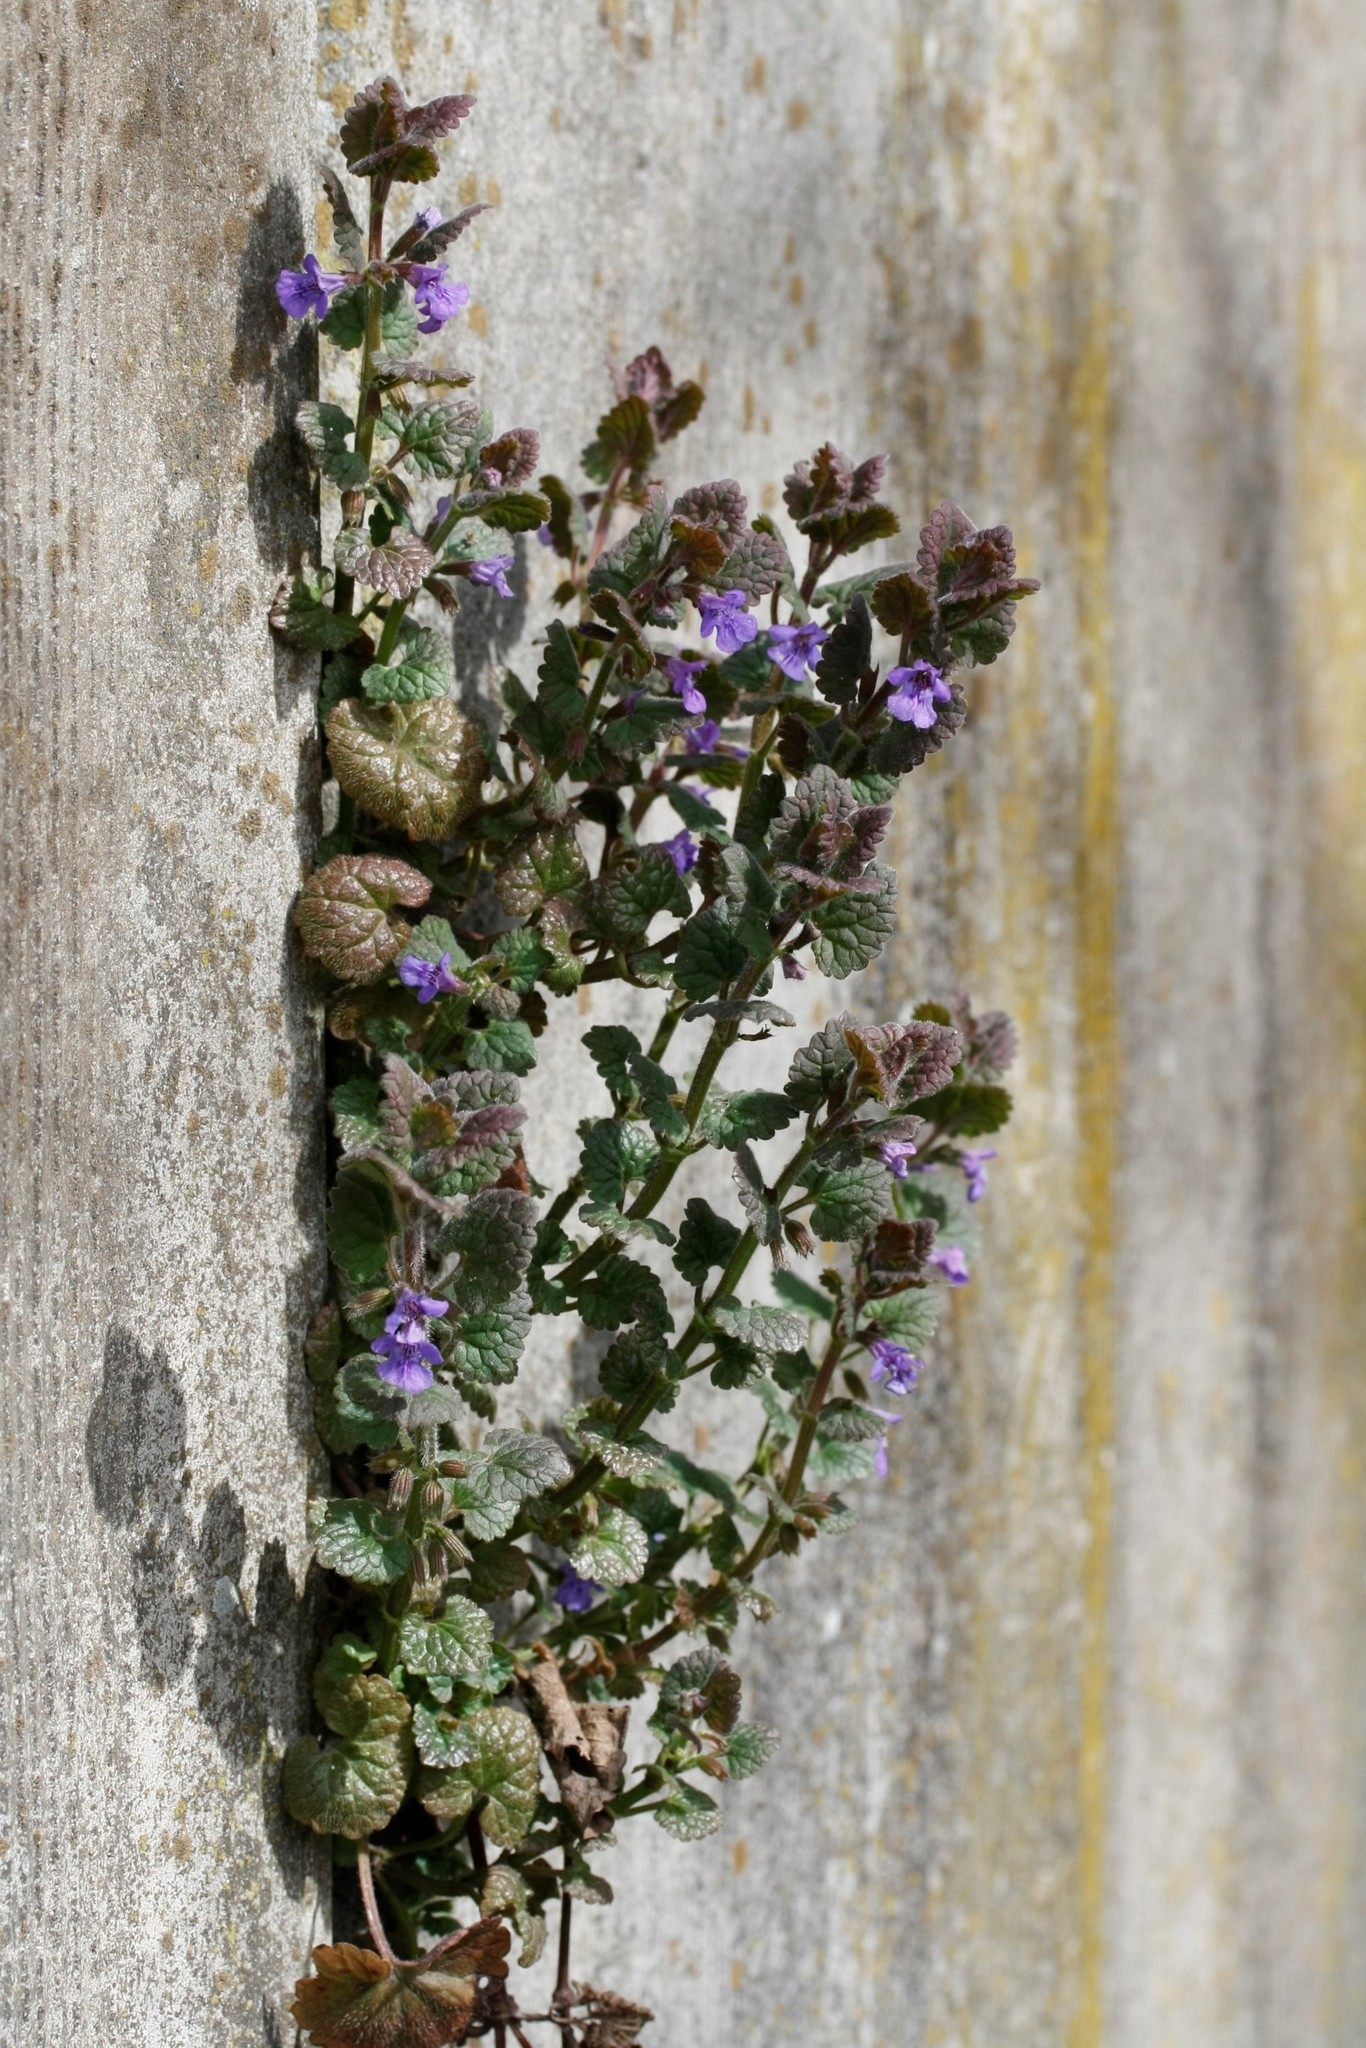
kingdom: Plantae
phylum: Tracheophyta
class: Magnoliopsida
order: Lamiales
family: Lamiaceae
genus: Glechoma
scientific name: Glechoma hederacea
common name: Ground ivy
